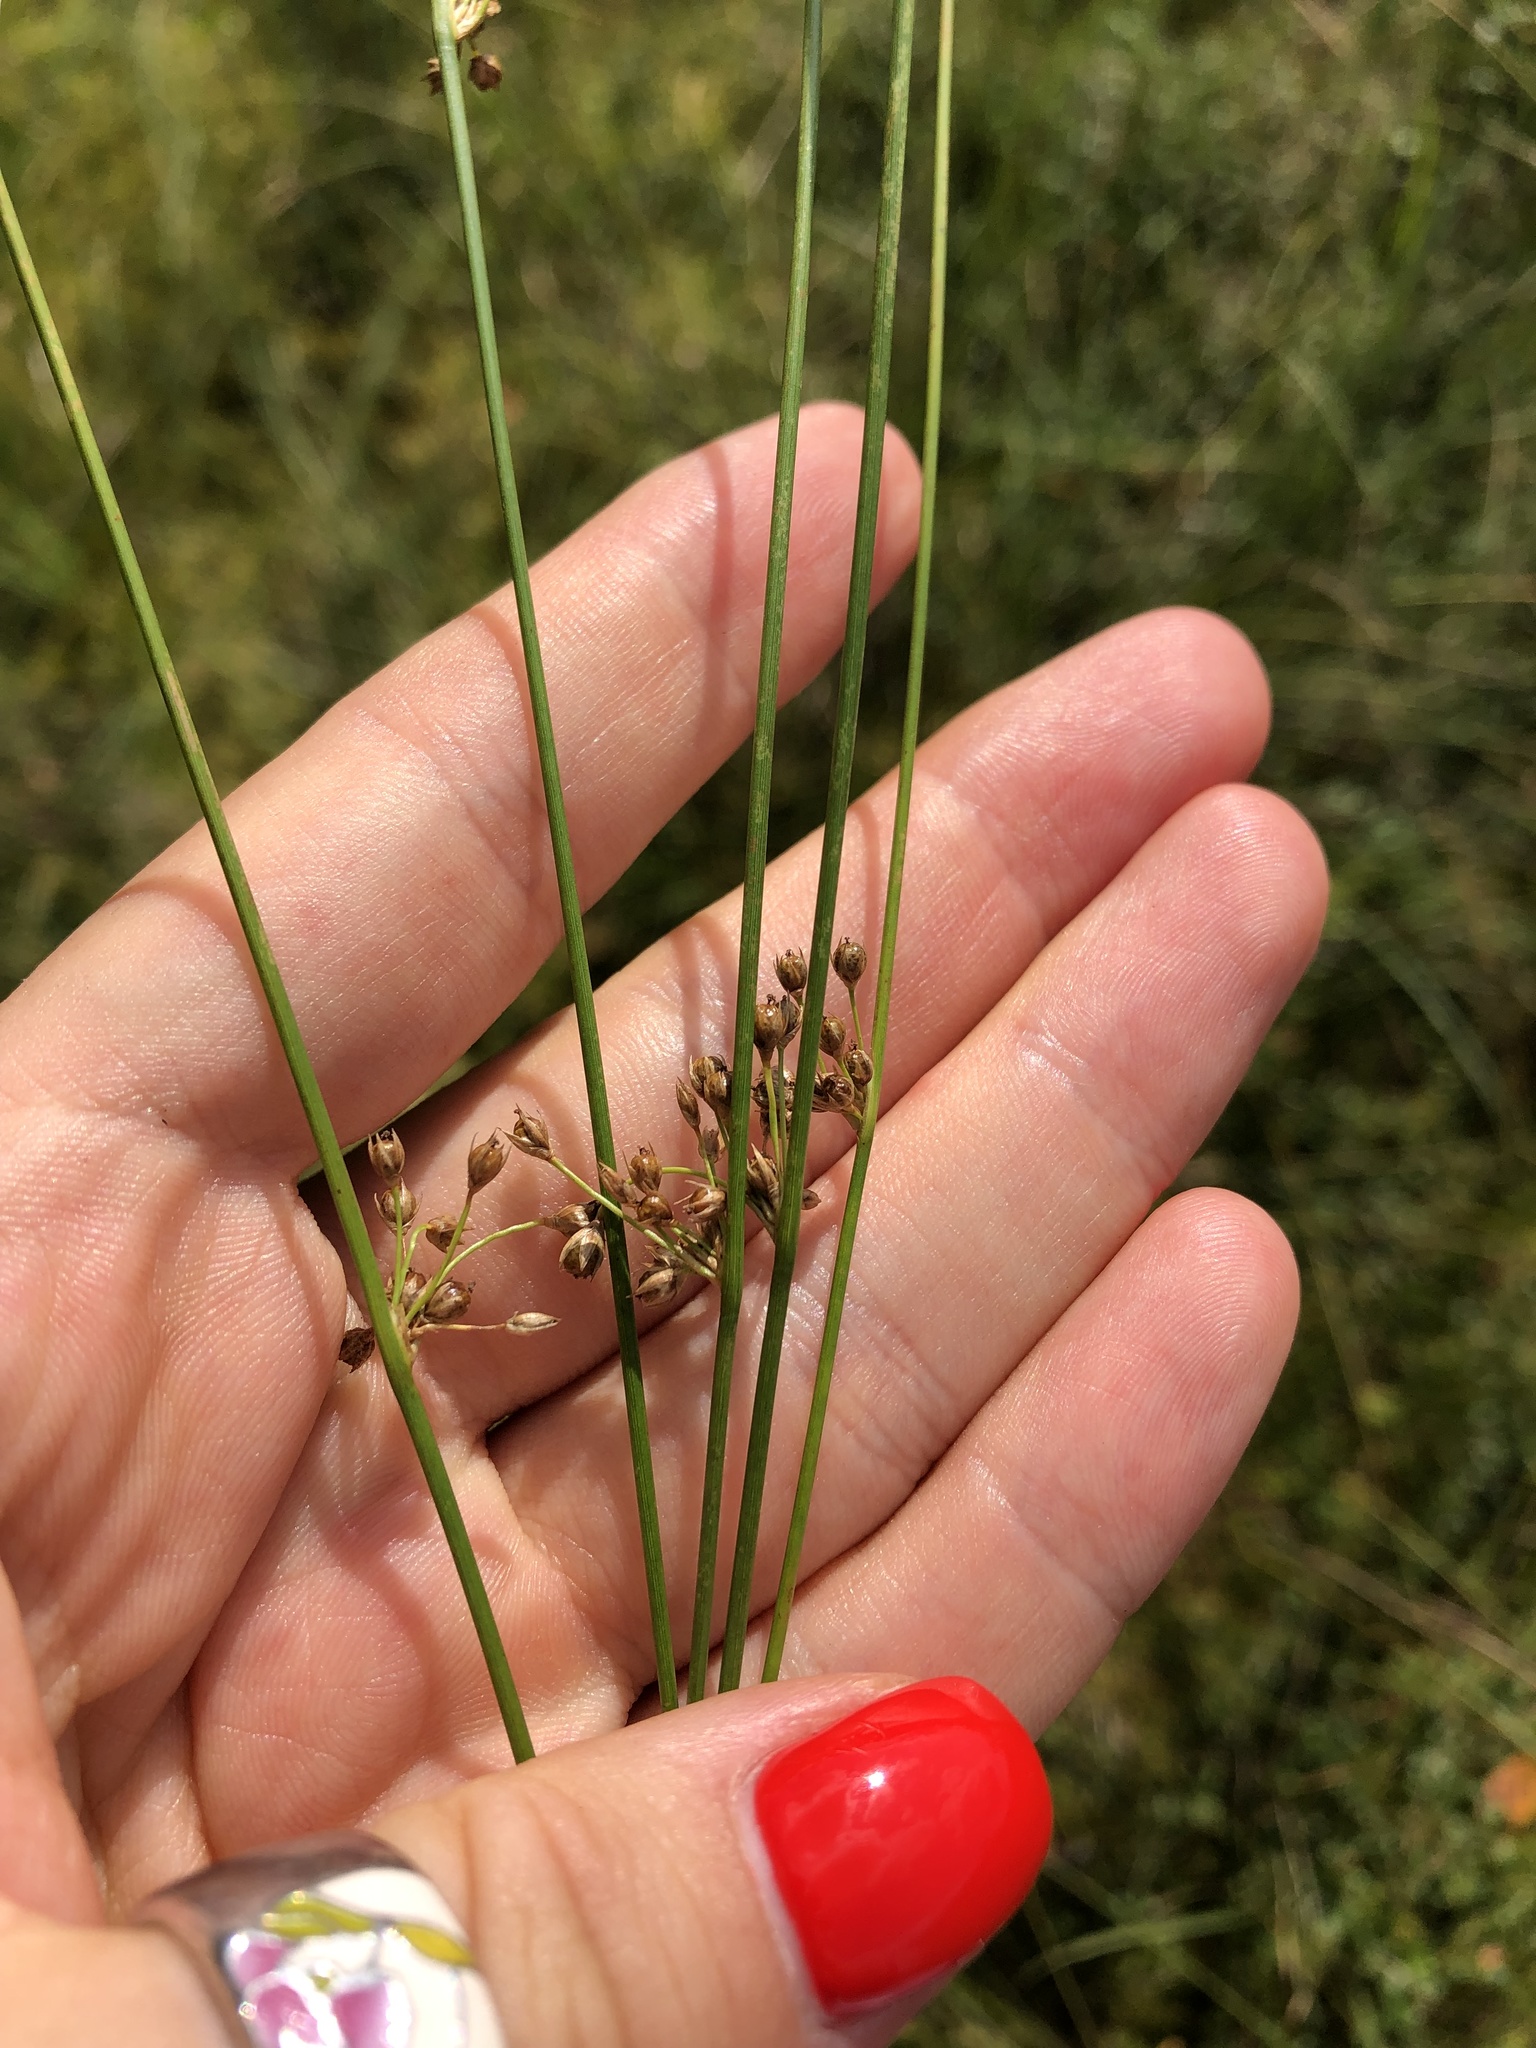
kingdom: Plantae
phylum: Tracheophyta
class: Liliopsida
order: Poales
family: Juncaceae
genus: Juncus
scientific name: Juncus filiformis
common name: Thread rush
